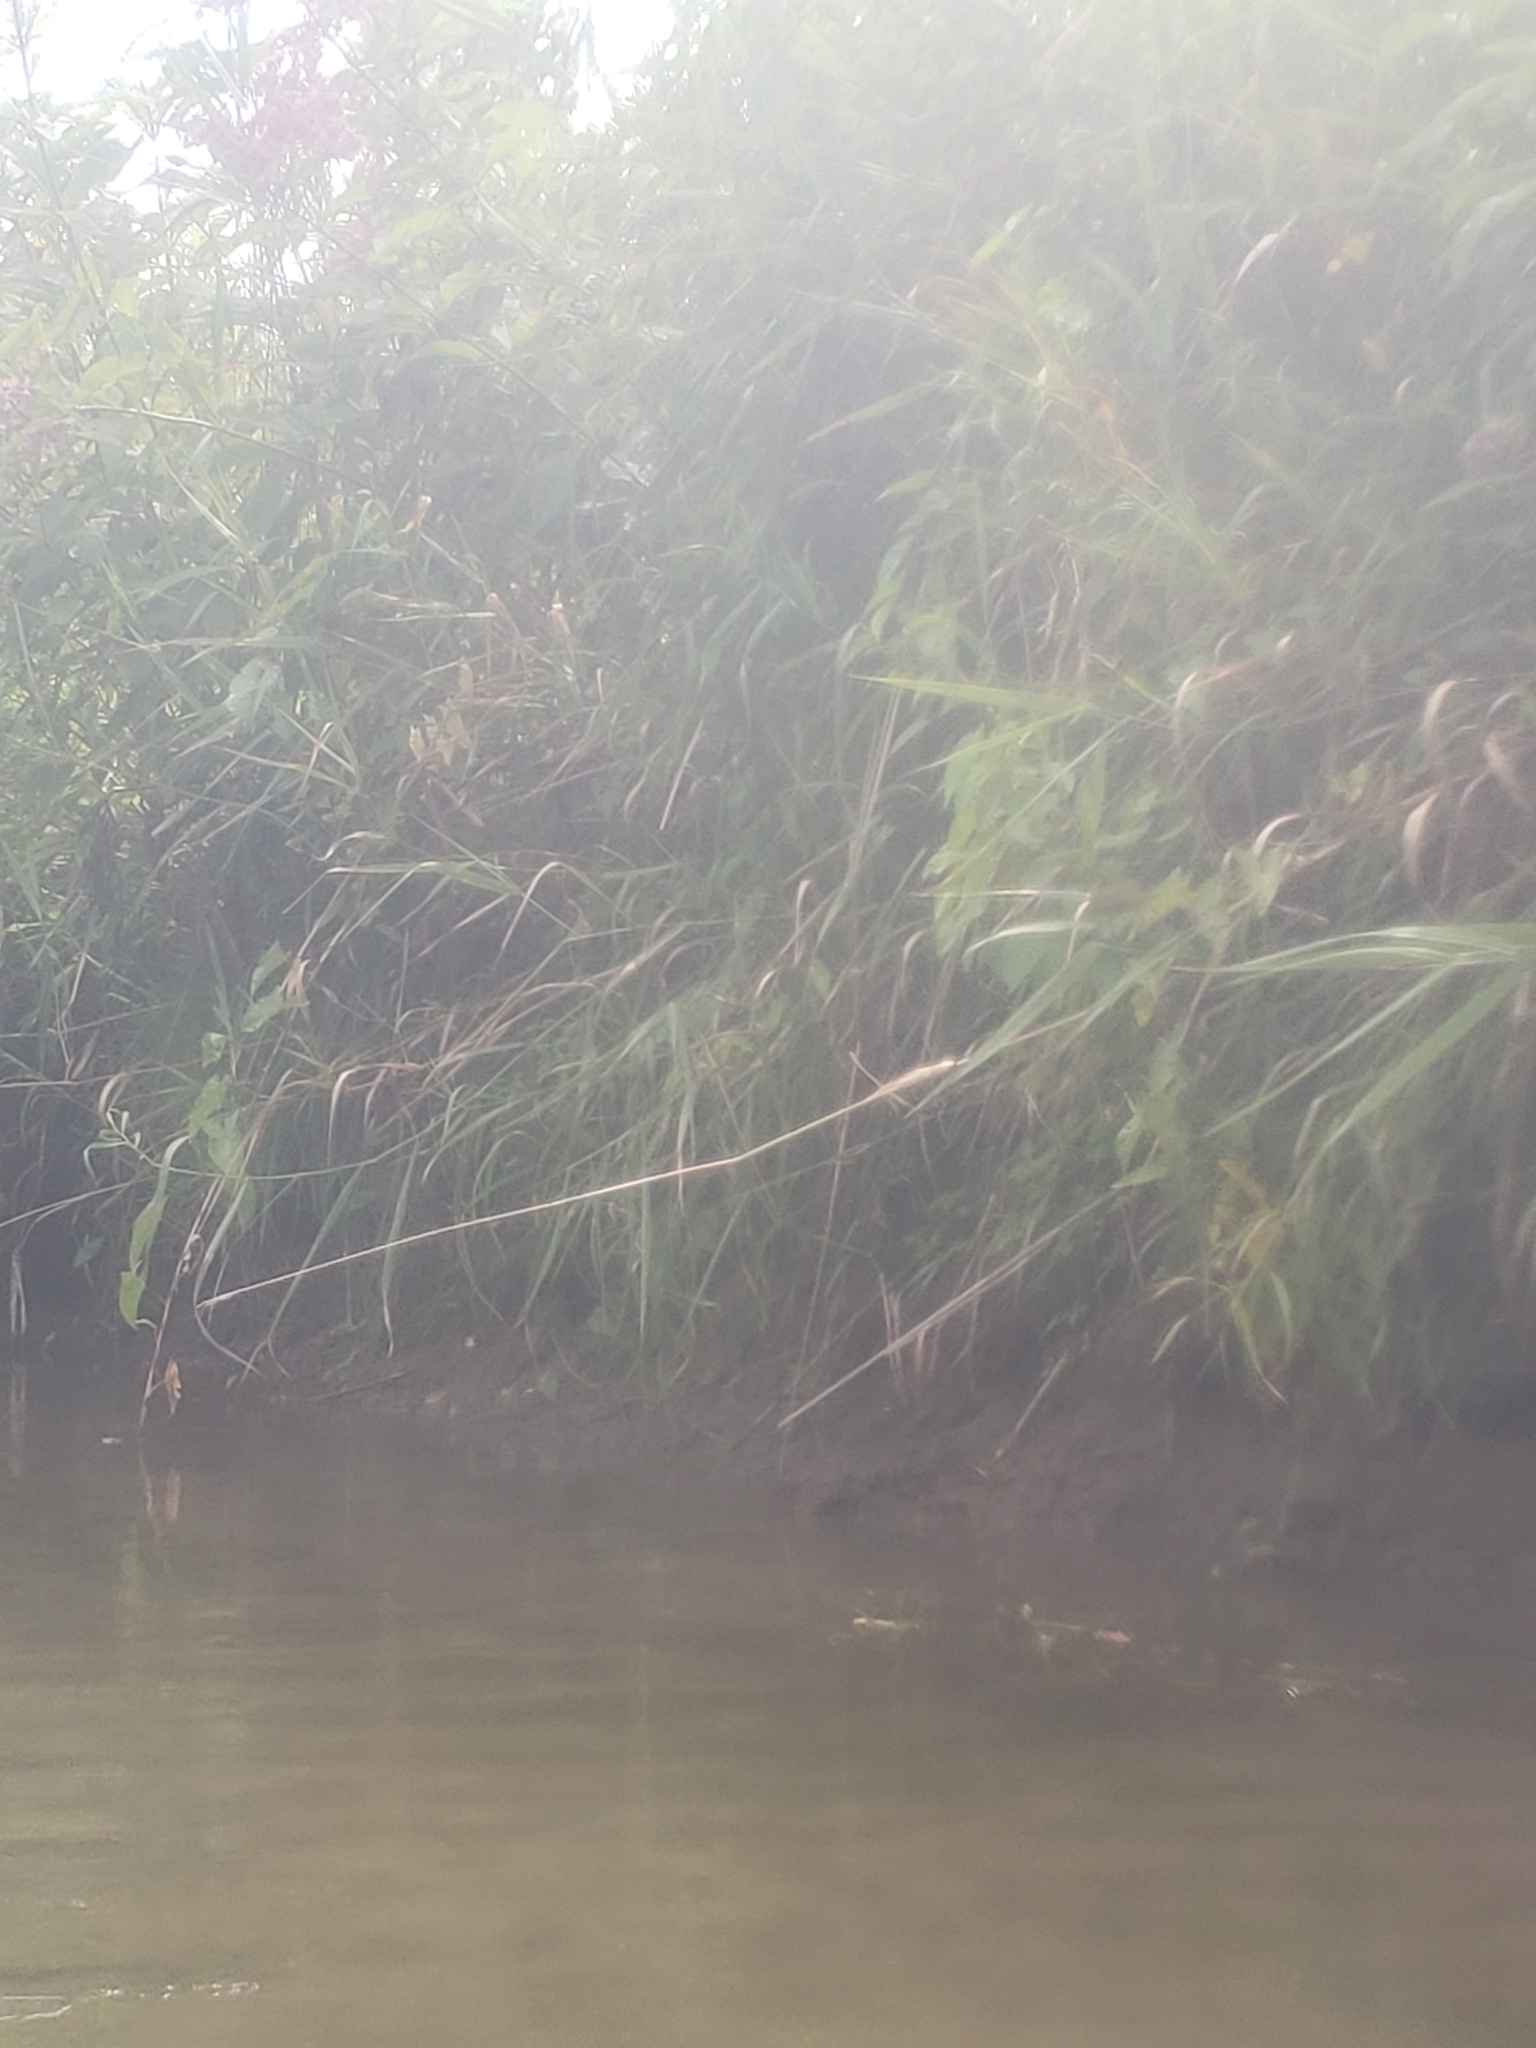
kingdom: Animalia
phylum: Chordata
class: Aves
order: Anseriformes
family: Anatidae
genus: Aix
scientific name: Aix sponsa
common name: Wood duck
